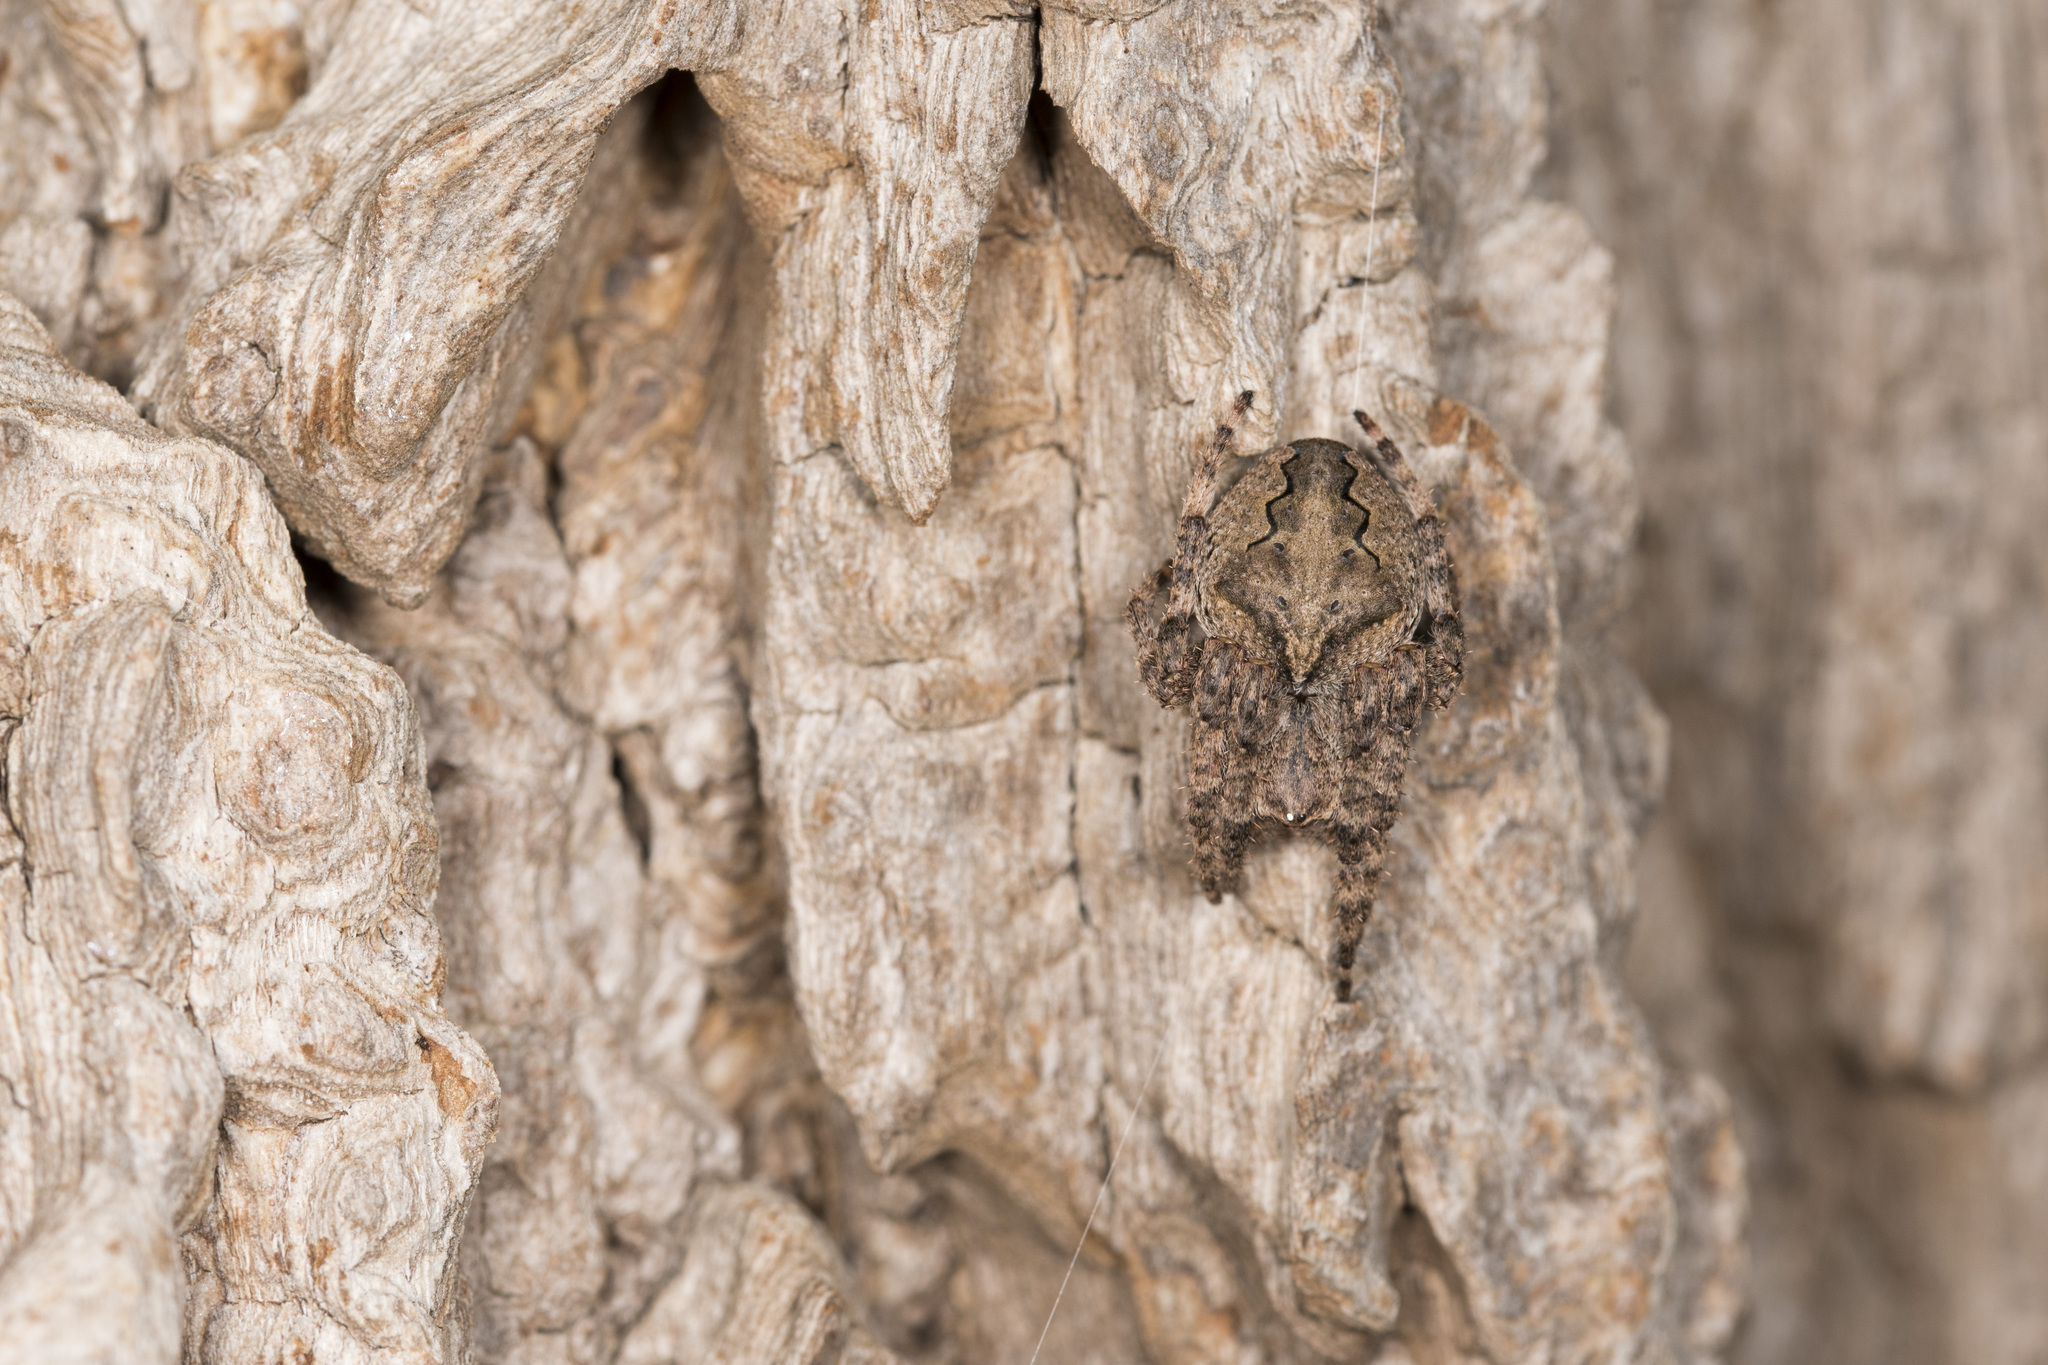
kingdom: Animalia
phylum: Arthropoda
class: Arachnida
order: Araneae
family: Araneidae
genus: Araneus
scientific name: Araneus ventricosus
